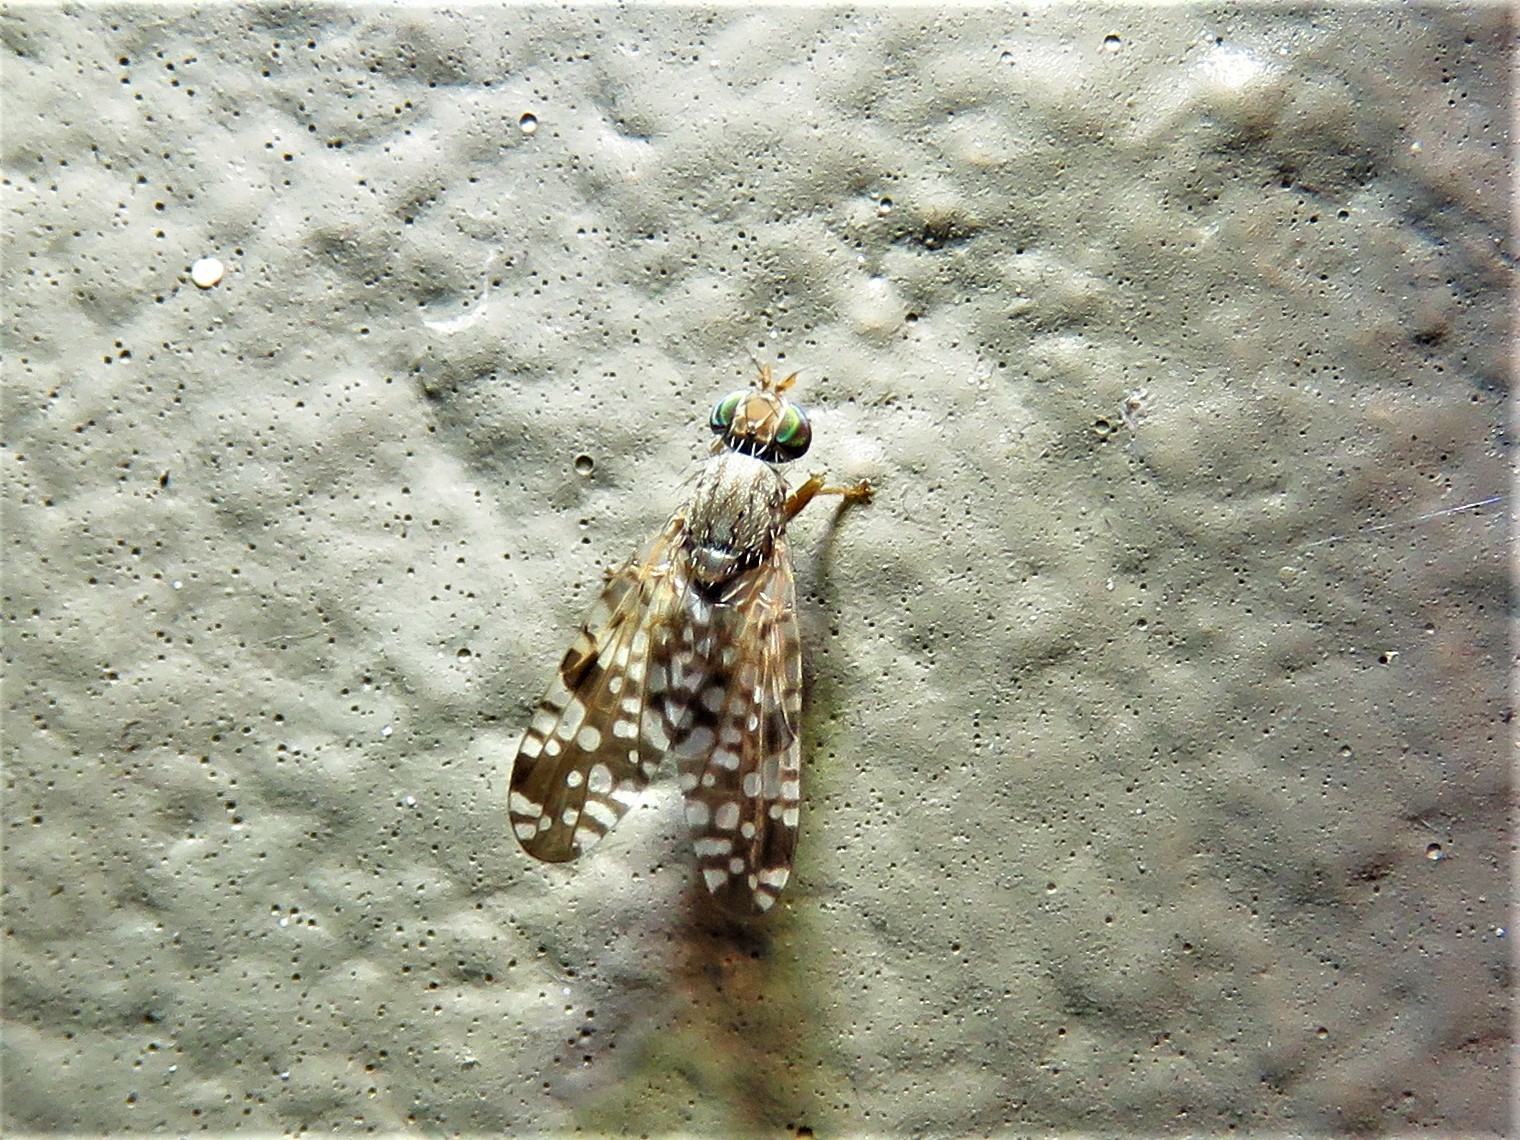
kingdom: Animalia
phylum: Arthropoda
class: Insecta
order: Diptera
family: Tephritidae
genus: Neotephritis
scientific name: Neotephritis finalis
